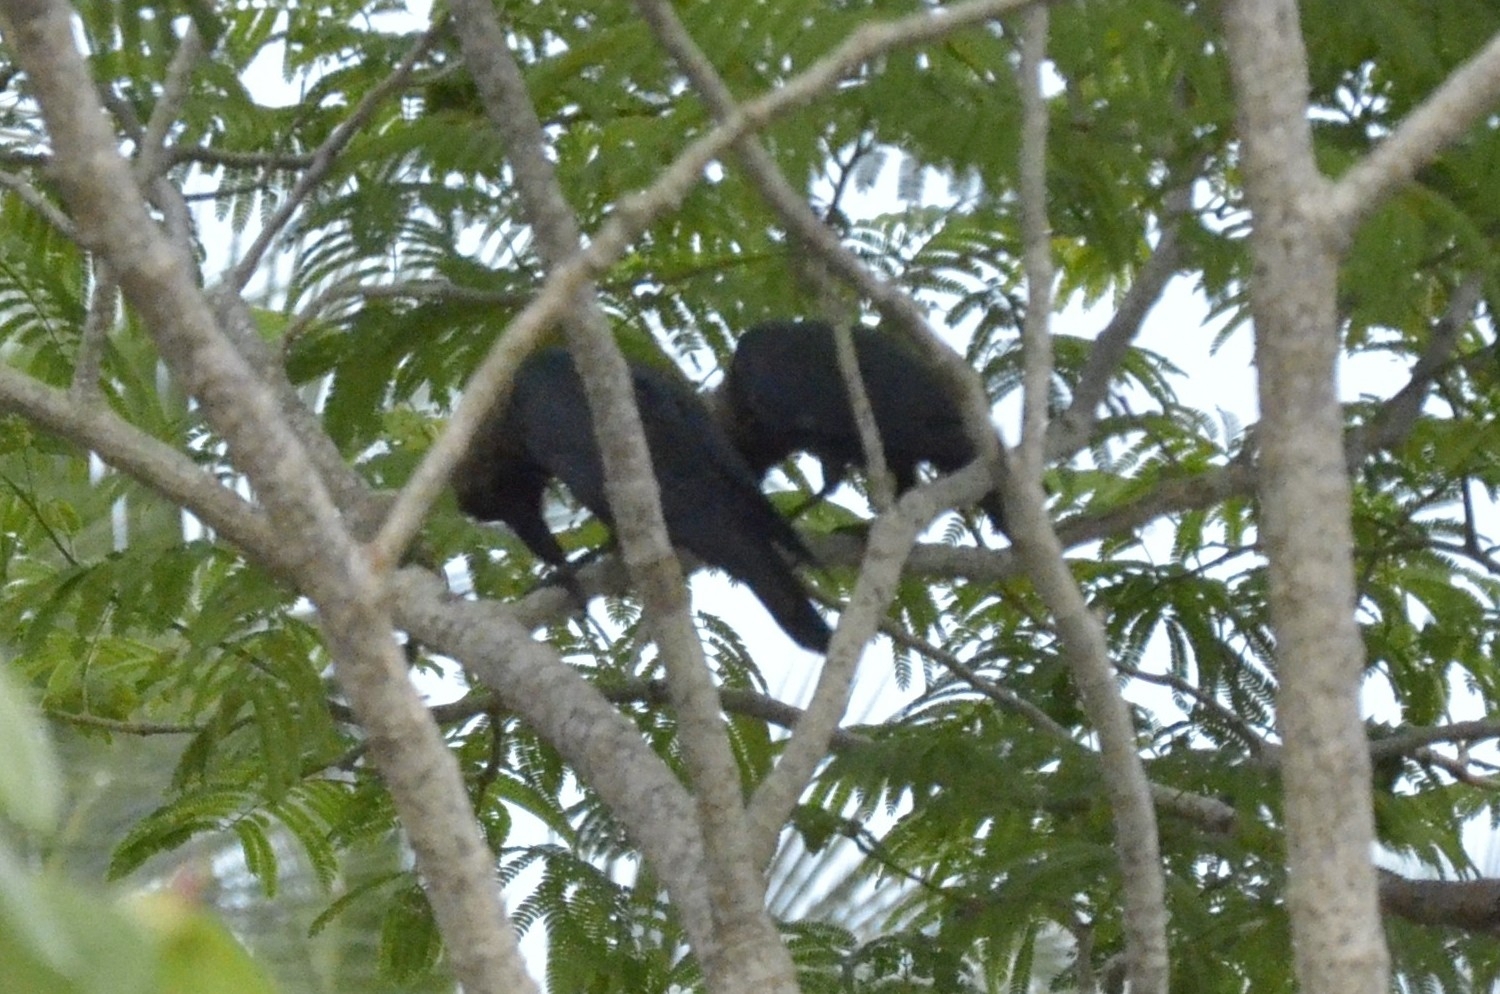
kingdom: Animalia
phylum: Chordata
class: Aves
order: Passeriformes
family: Corvidae
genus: Corvus
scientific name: Corvus splendens
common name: House crow
